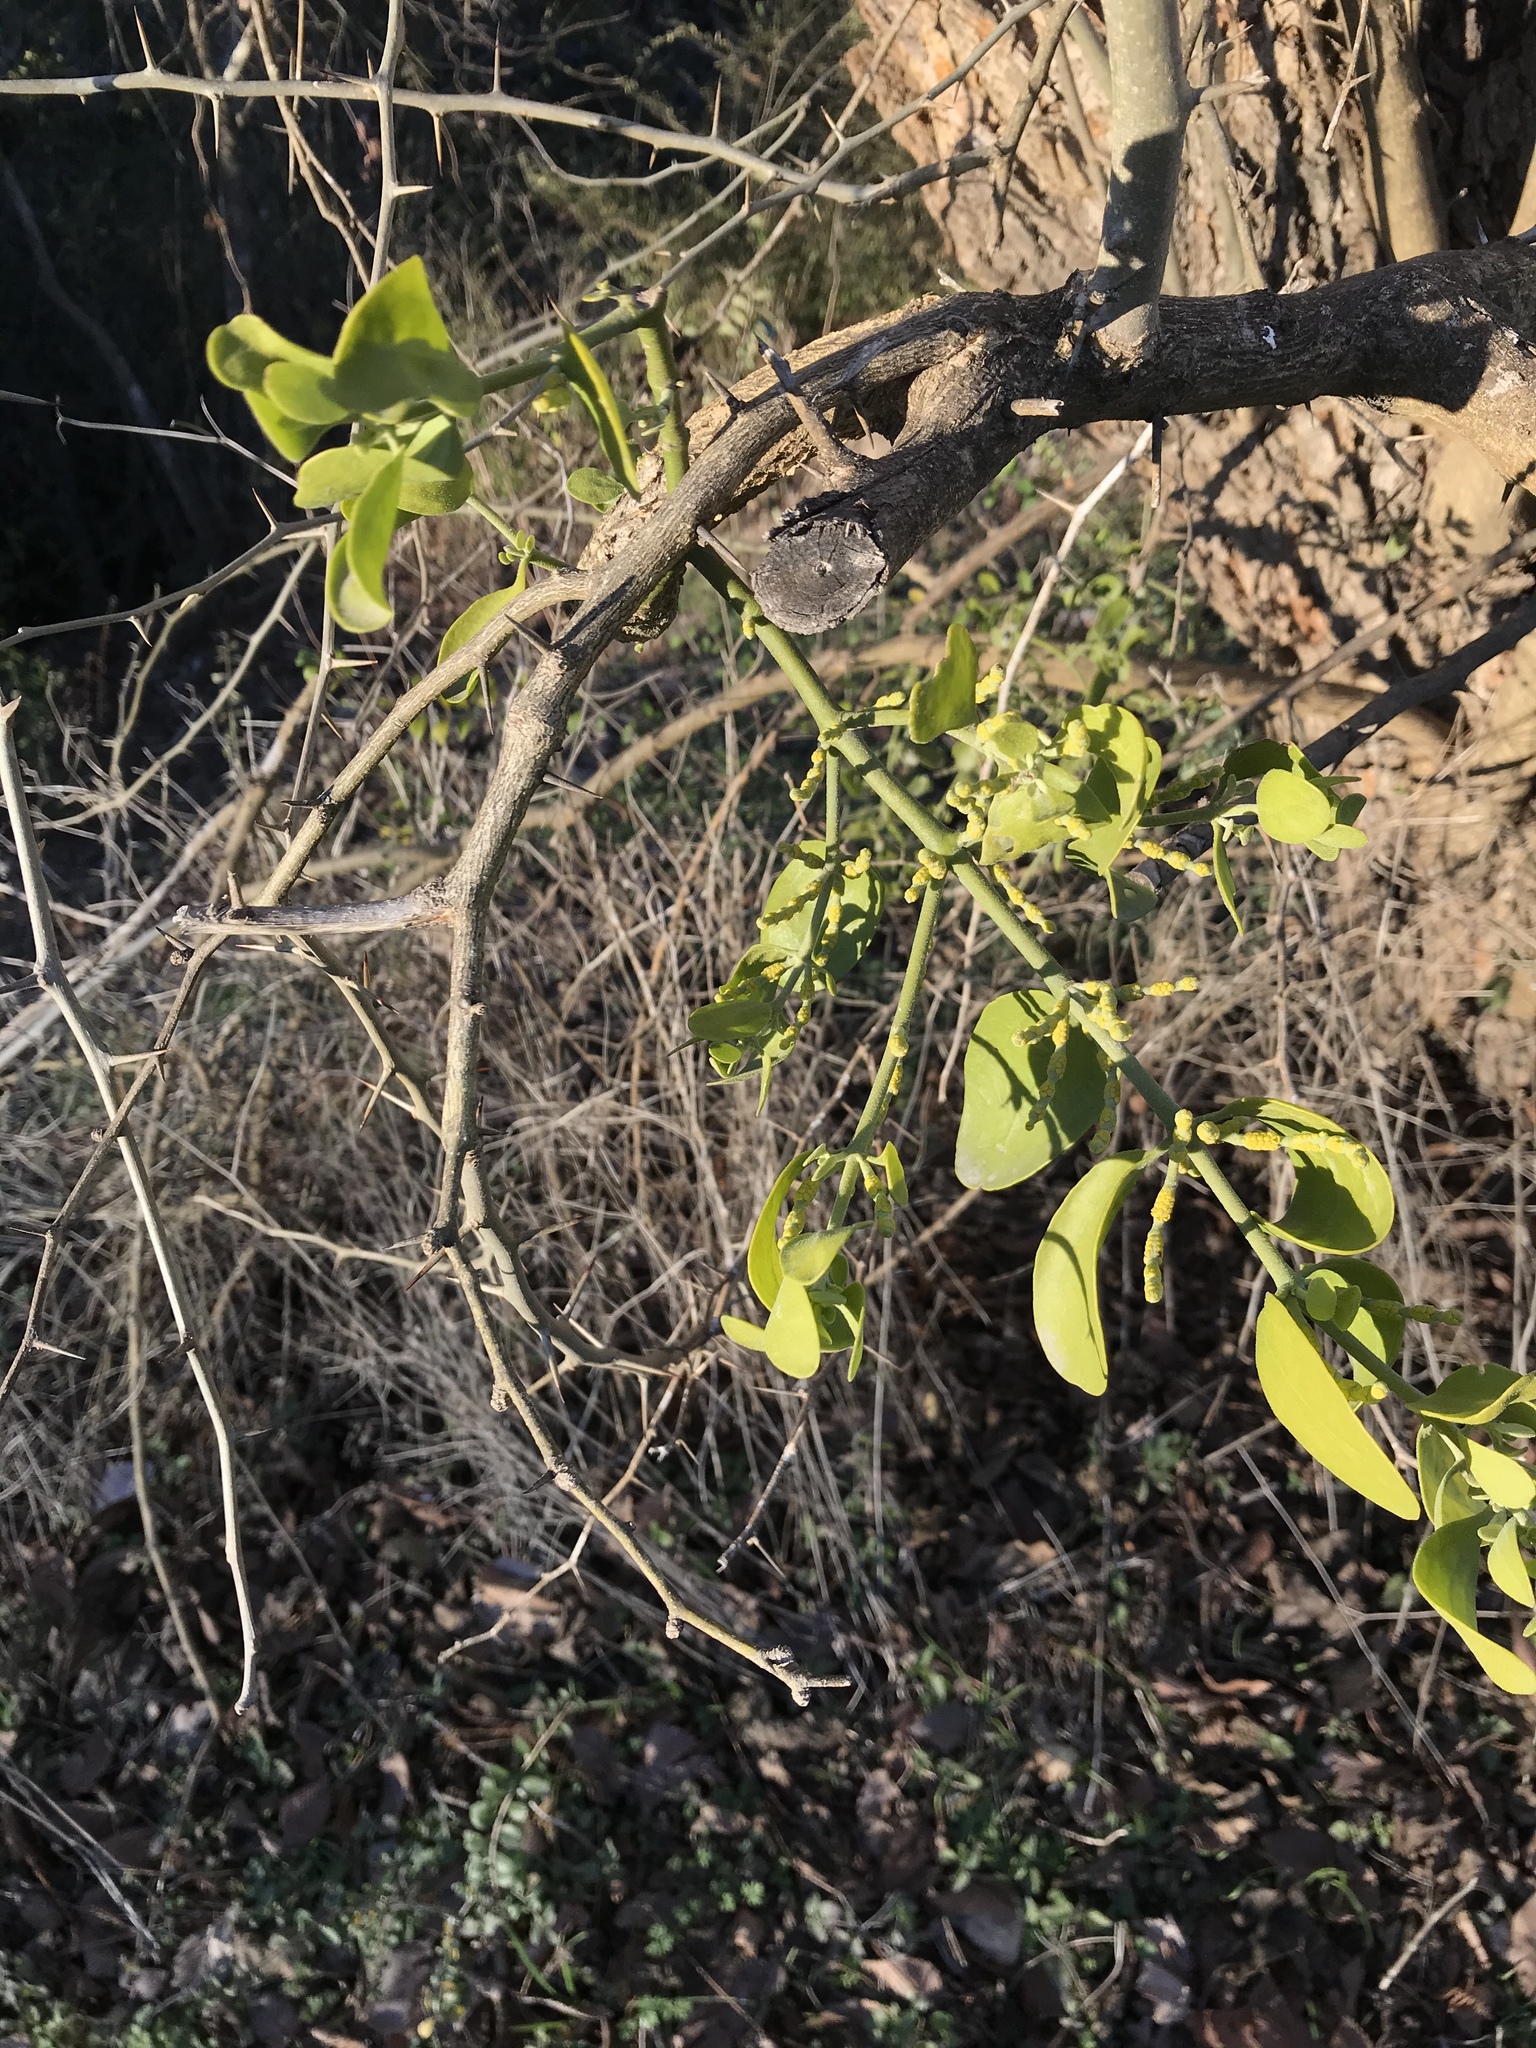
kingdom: Plantae
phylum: Tracheophyta
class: Magnoliopsida
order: Santalales
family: Viscaceae
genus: Phoradendron
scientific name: Phoradendron leucarpum
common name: Pacific mistletoe
